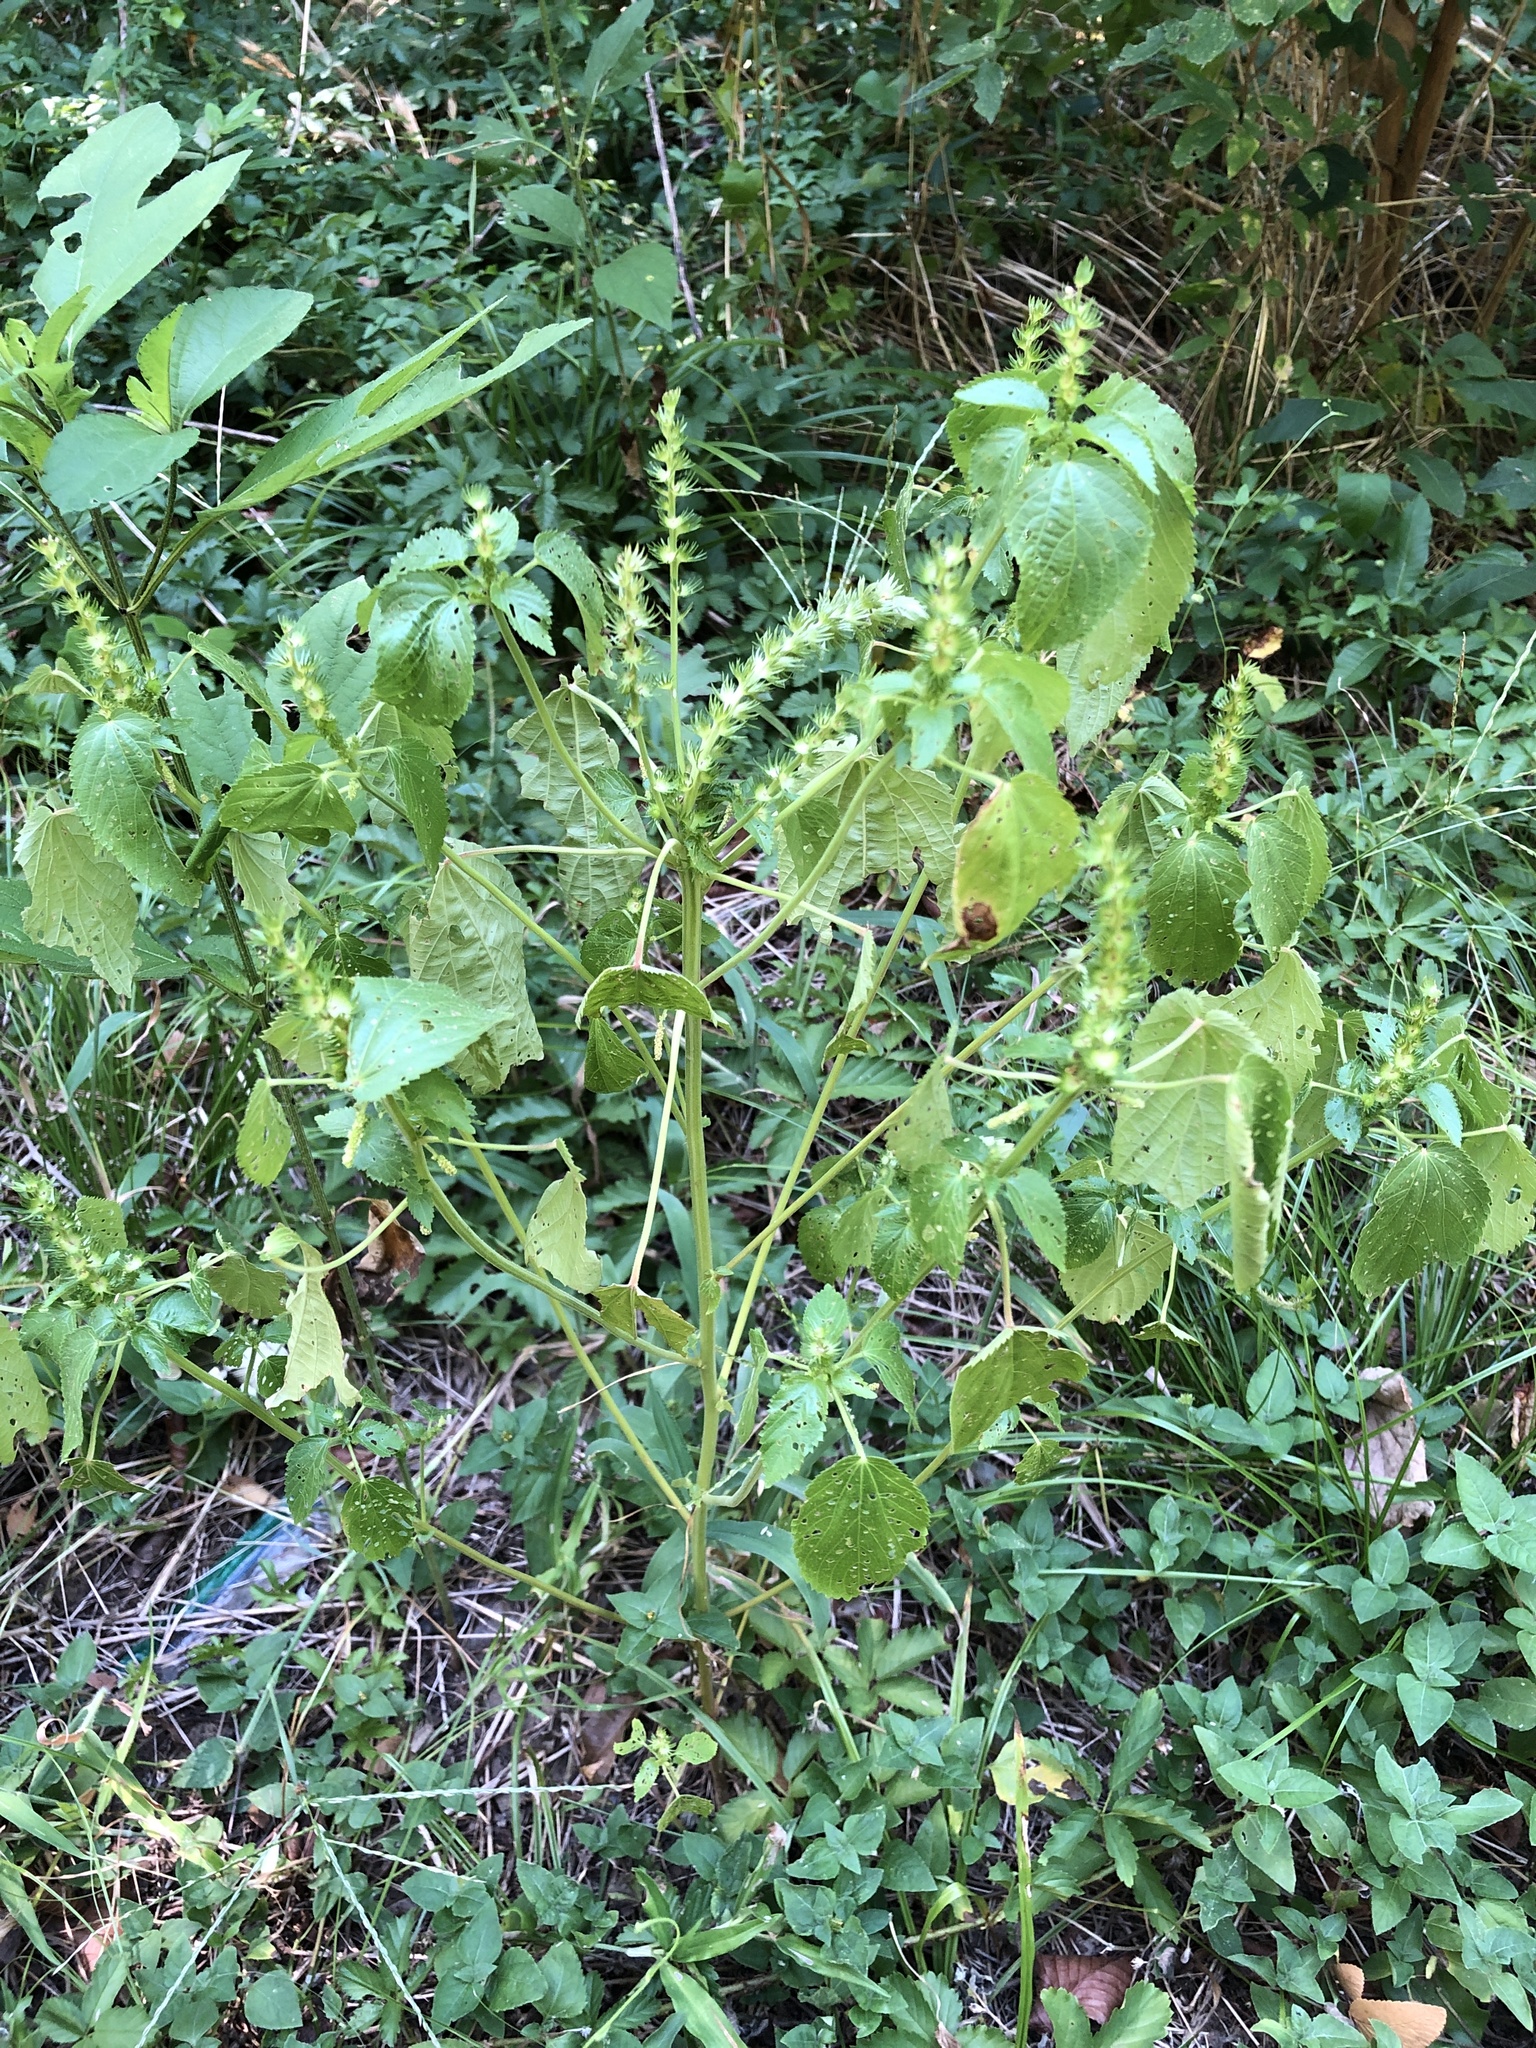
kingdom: Plantae
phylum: Tracheophyta
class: Magnoliopsida
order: Malpighiales
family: Euphorbiaceae
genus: Acalypha
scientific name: Acalypha ostryifolia
